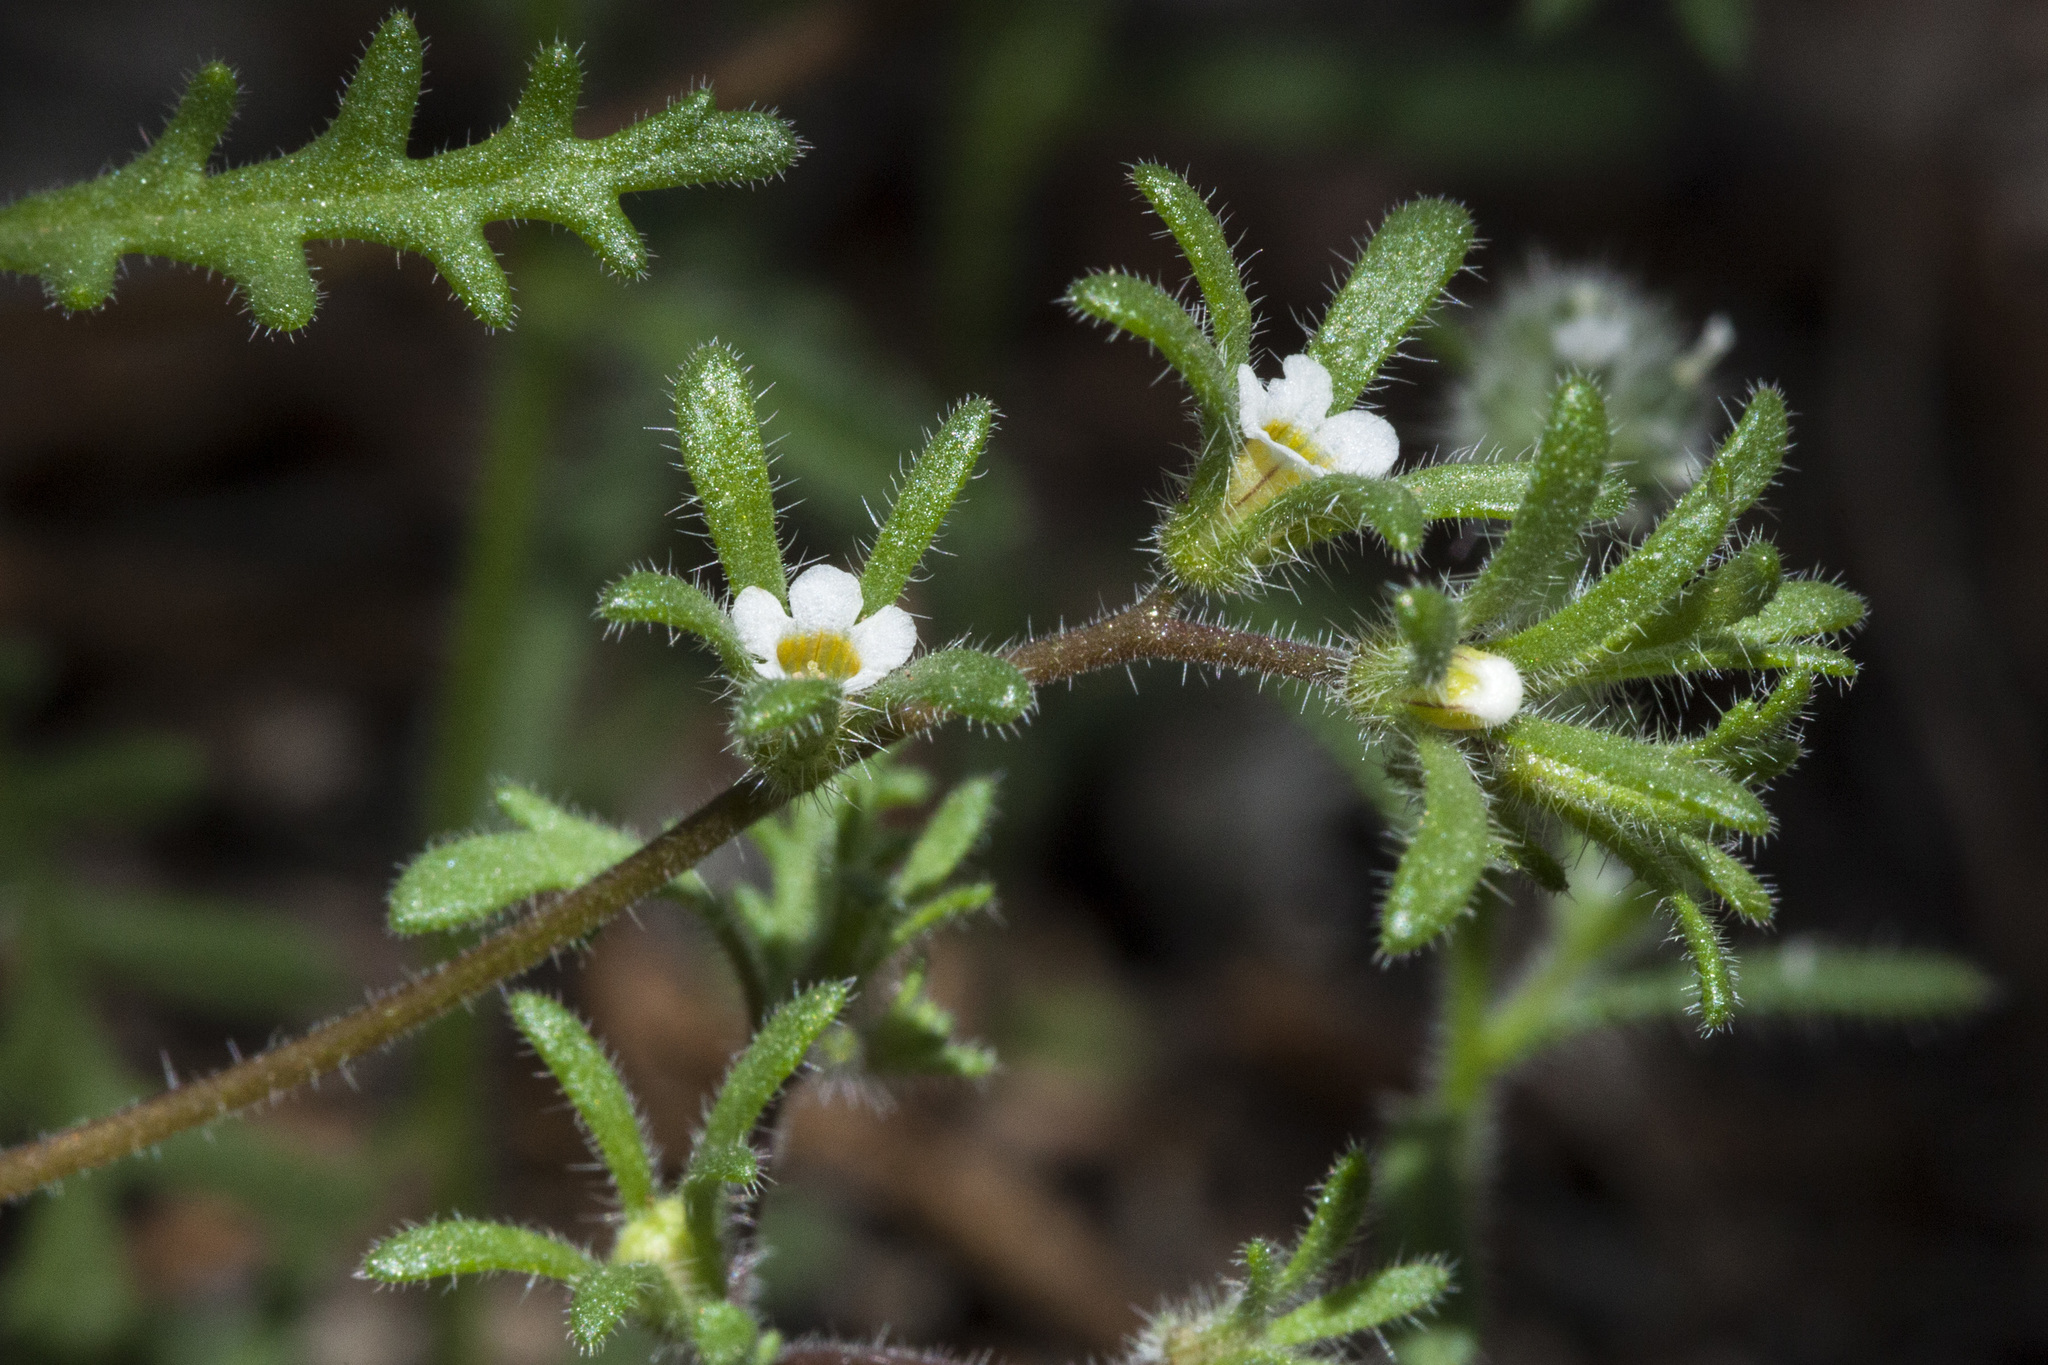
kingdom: Plantae
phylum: Tracheophyta
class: Magnoliopsida
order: Boraginales
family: Hydrophyllaceae
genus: Phacelia
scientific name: Phacelia ivesiana
